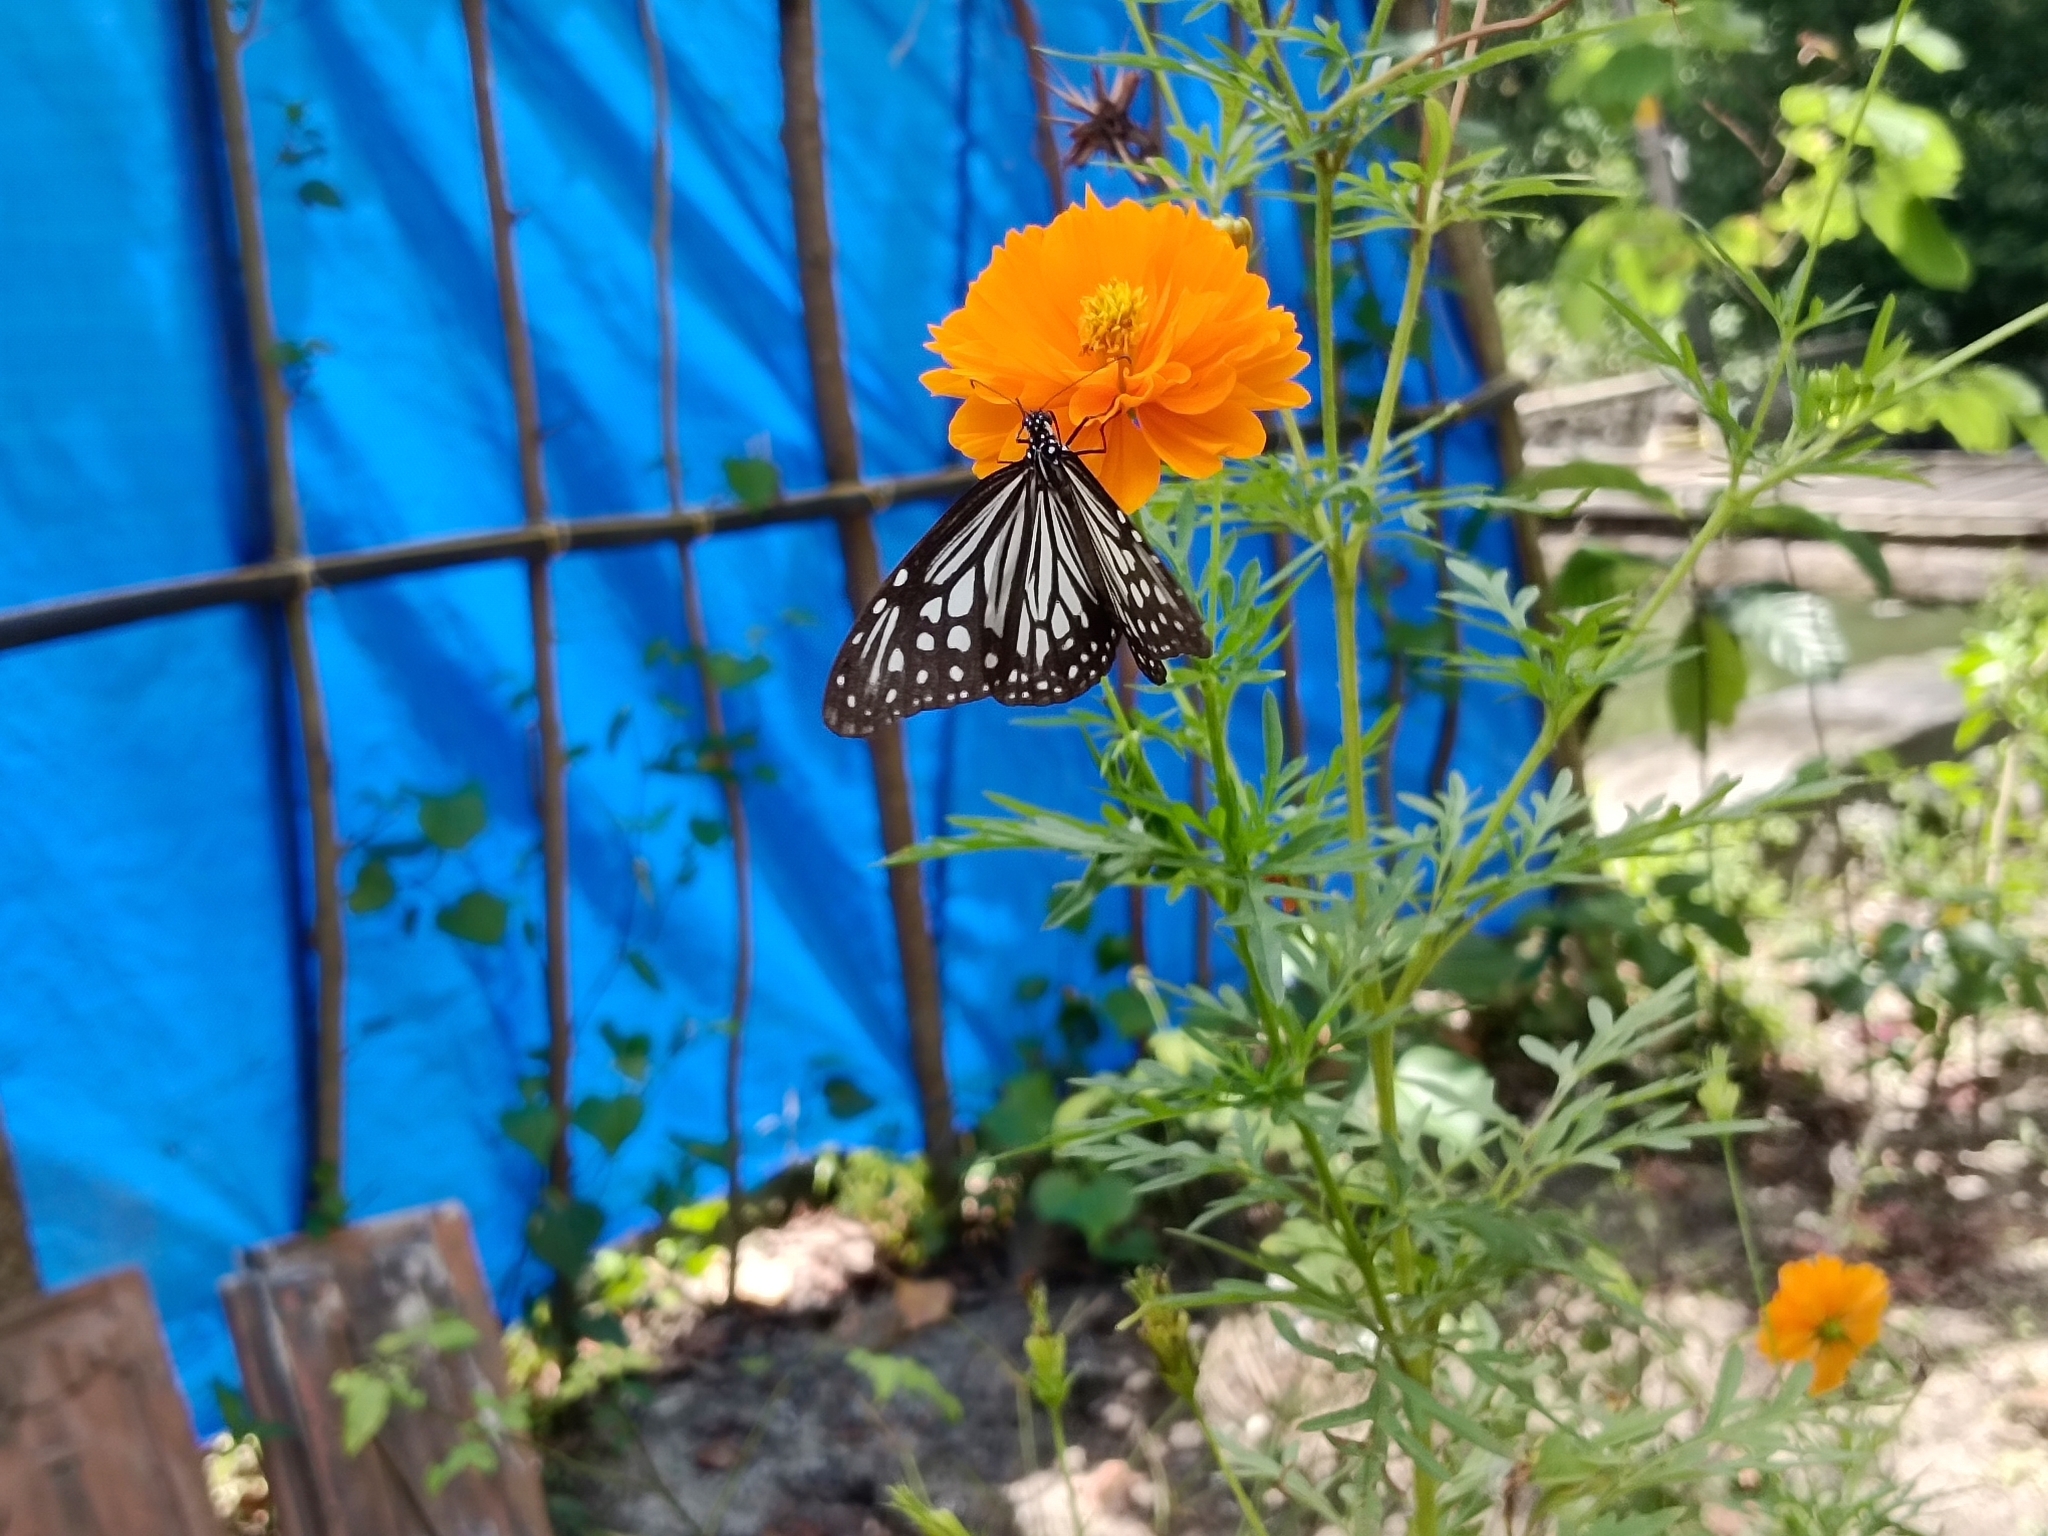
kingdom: Animalia
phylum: Arthropoda
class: Insecta
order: Lepidoptera
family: Nymphalidae
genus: Parantica
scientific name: Parantica aglea
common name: Glassy tiger
